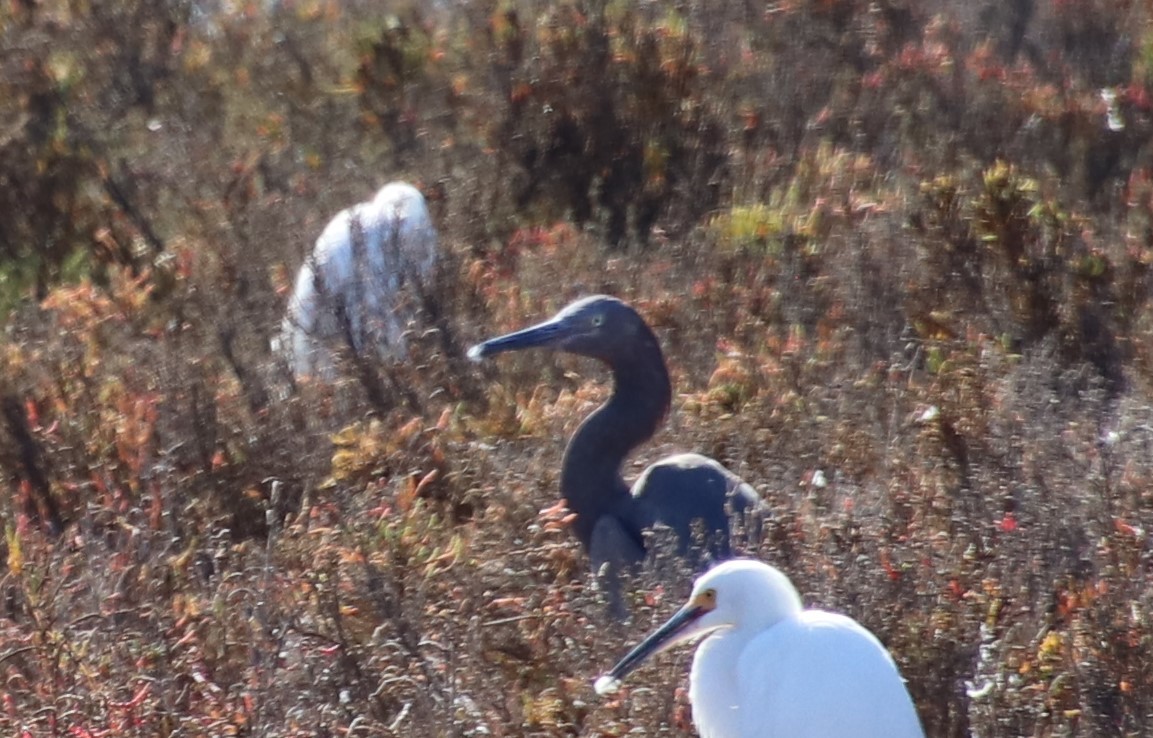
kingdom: Animalia
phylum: Chordata
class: Aves
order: Pelecaniformes
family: Ardeidae
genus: Egretta
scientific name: Egretta rufescens
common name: Reddish egret
